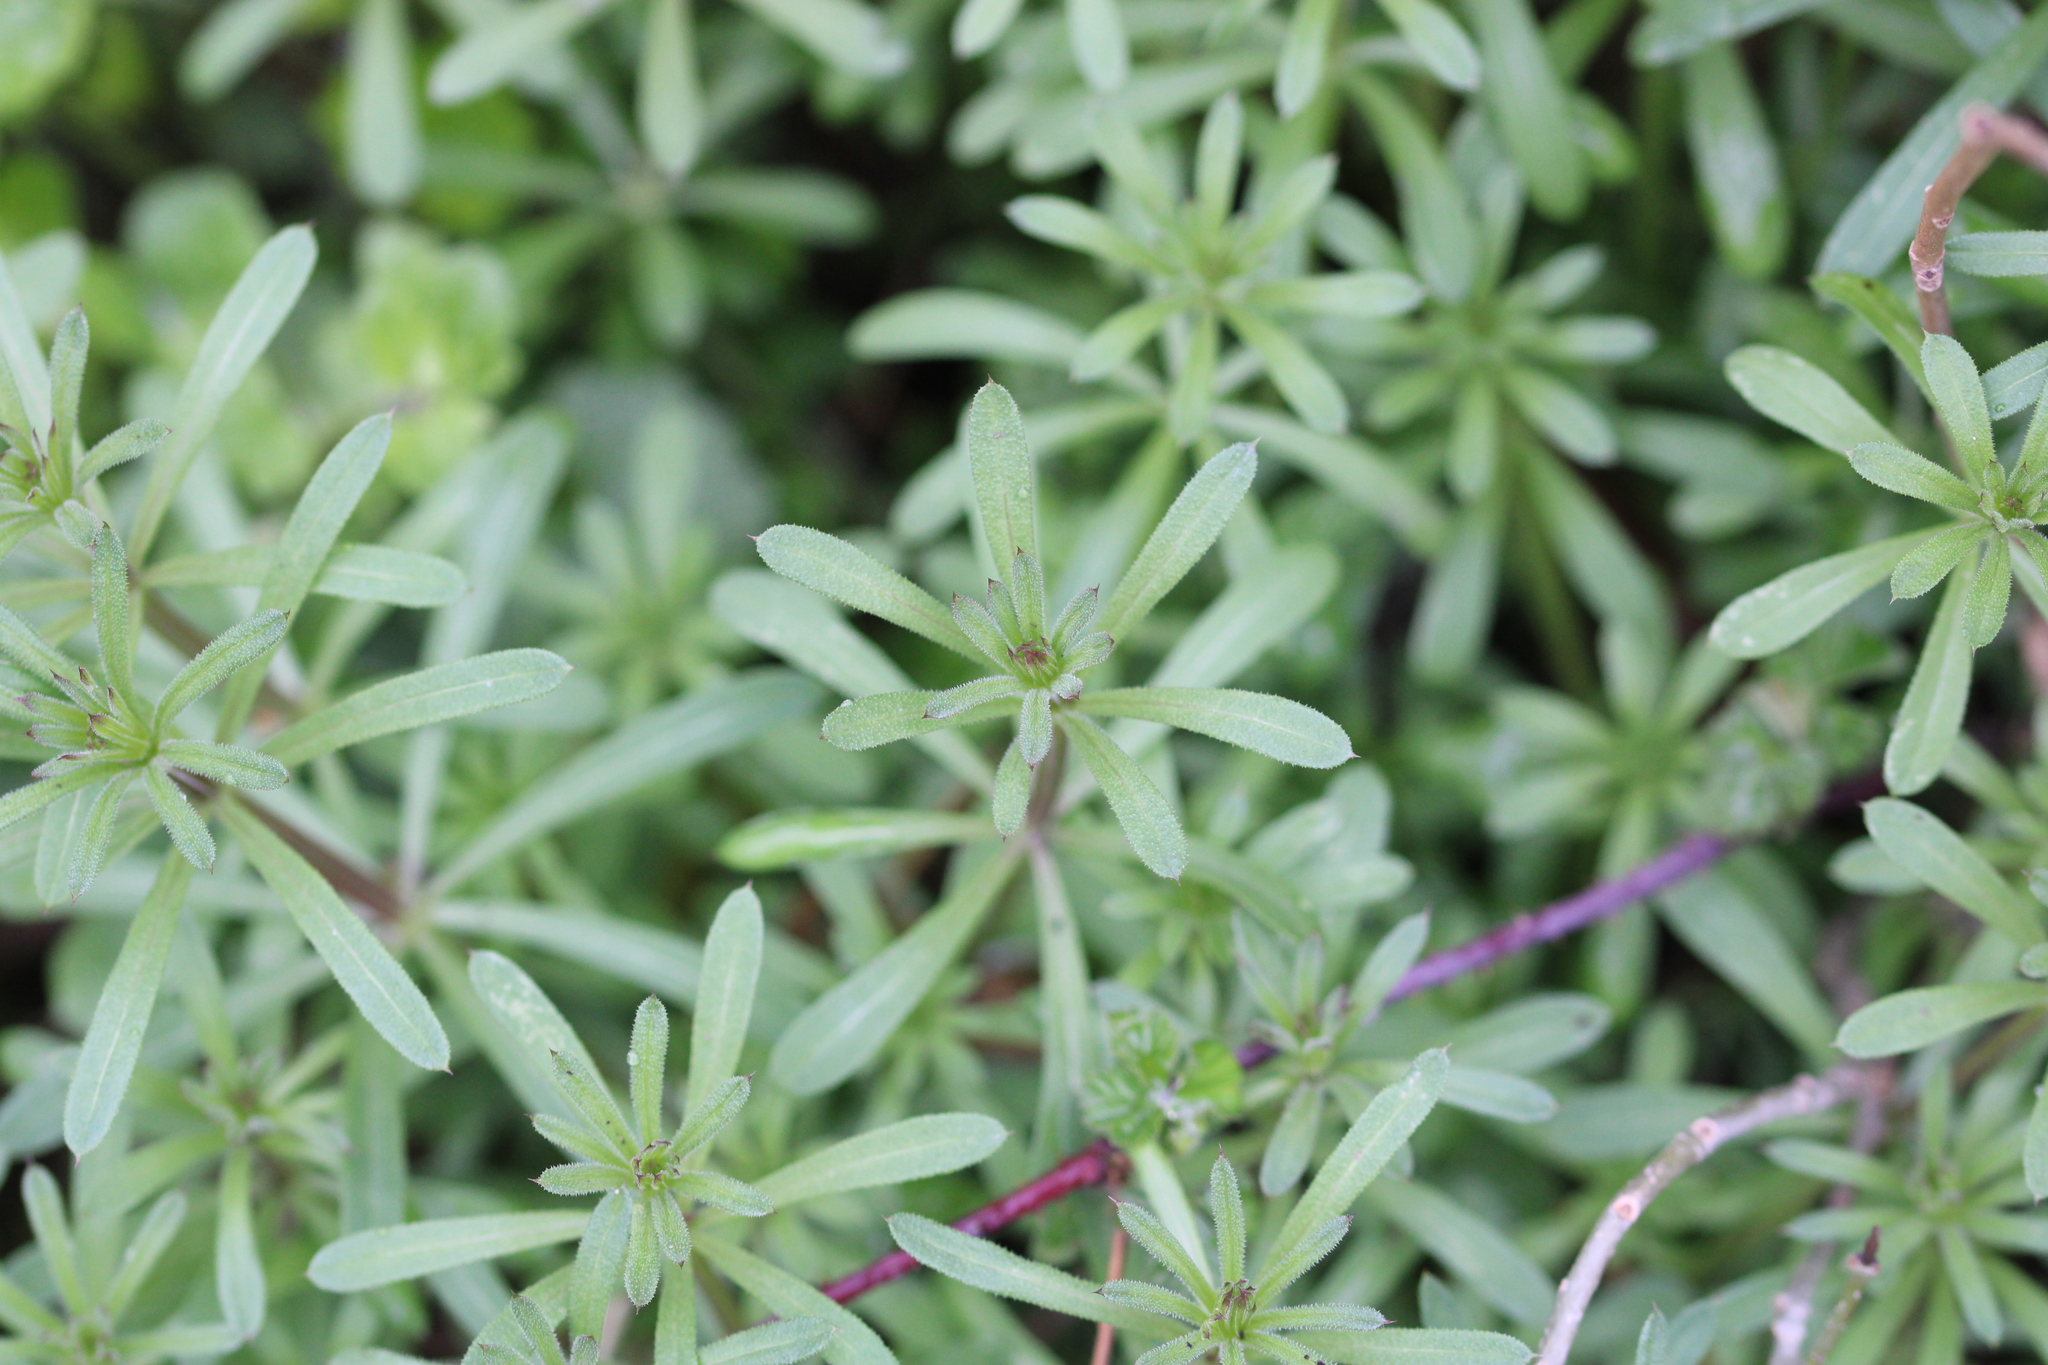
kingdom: Plantae
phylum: Tracheophyta
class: Magnoliopsida
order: Gentianales
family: Rubiaceae
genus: Galium
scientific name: Galium aparine
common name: Cleavers
